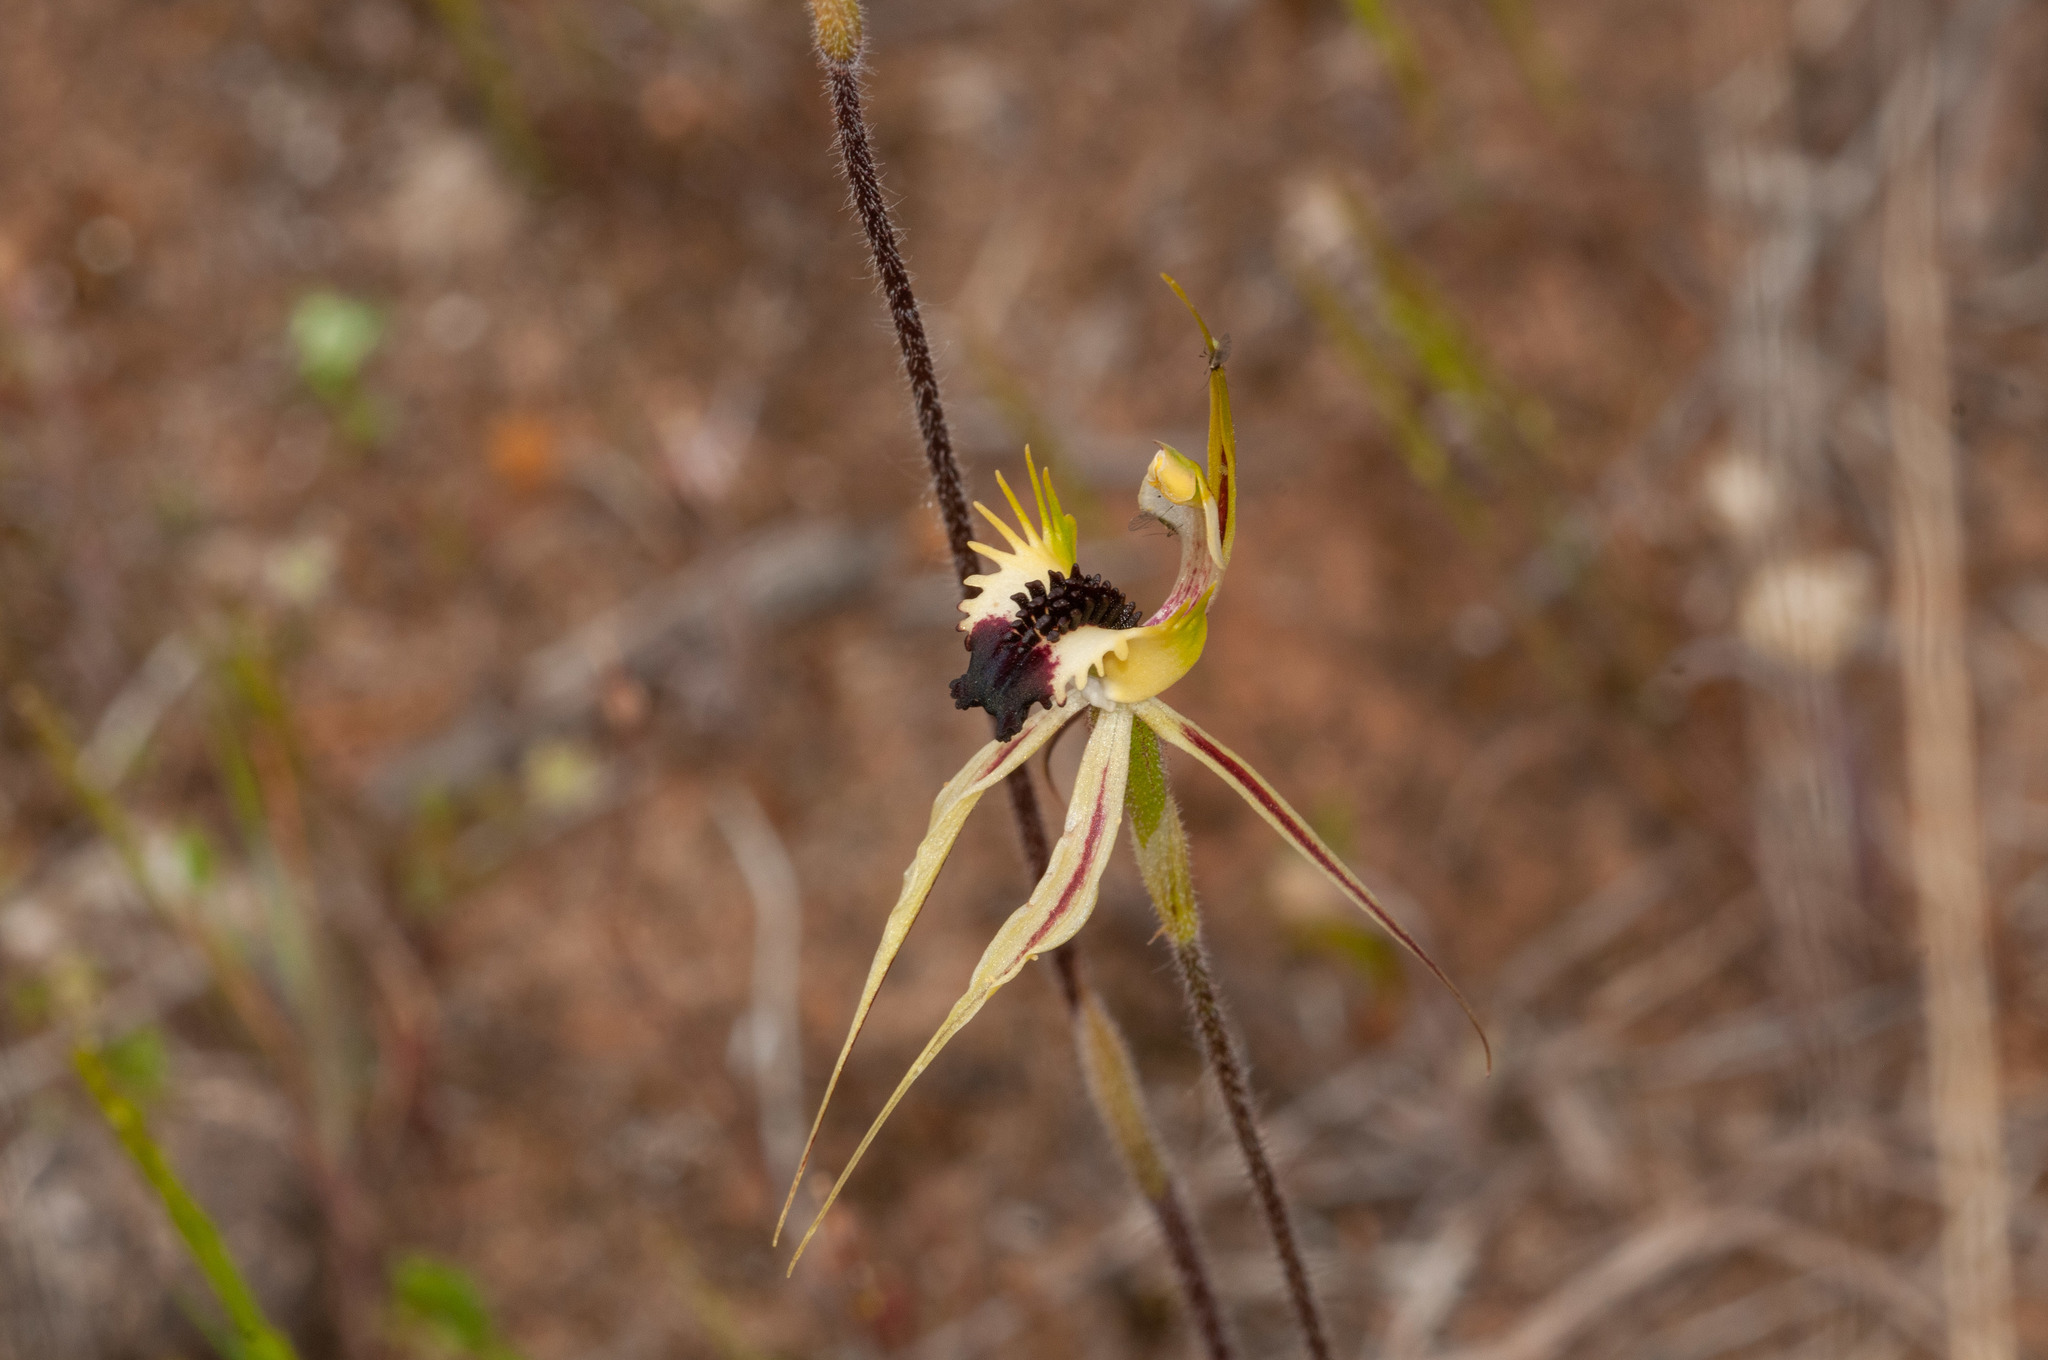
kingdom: Plantae
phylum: Tracheophyta
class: Liliopsida
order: Asparagales
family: Orchidaceae
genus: Caladenia
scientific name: Caladenia stricta
